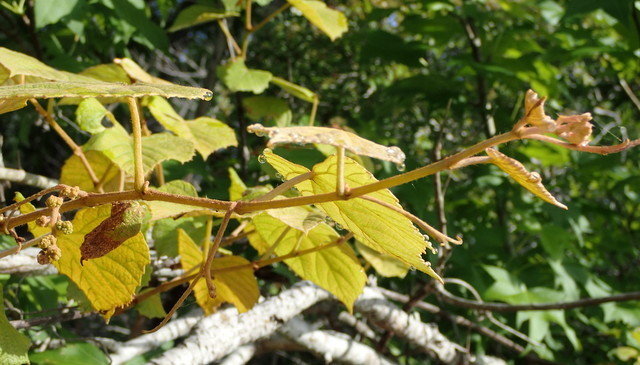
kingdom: Plantae
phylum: Tracheophyta
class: Magnoliopsida
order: Vitales
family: Vitaceae
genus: Vitis
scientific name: Vitis cinerea
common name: Ashy grape
